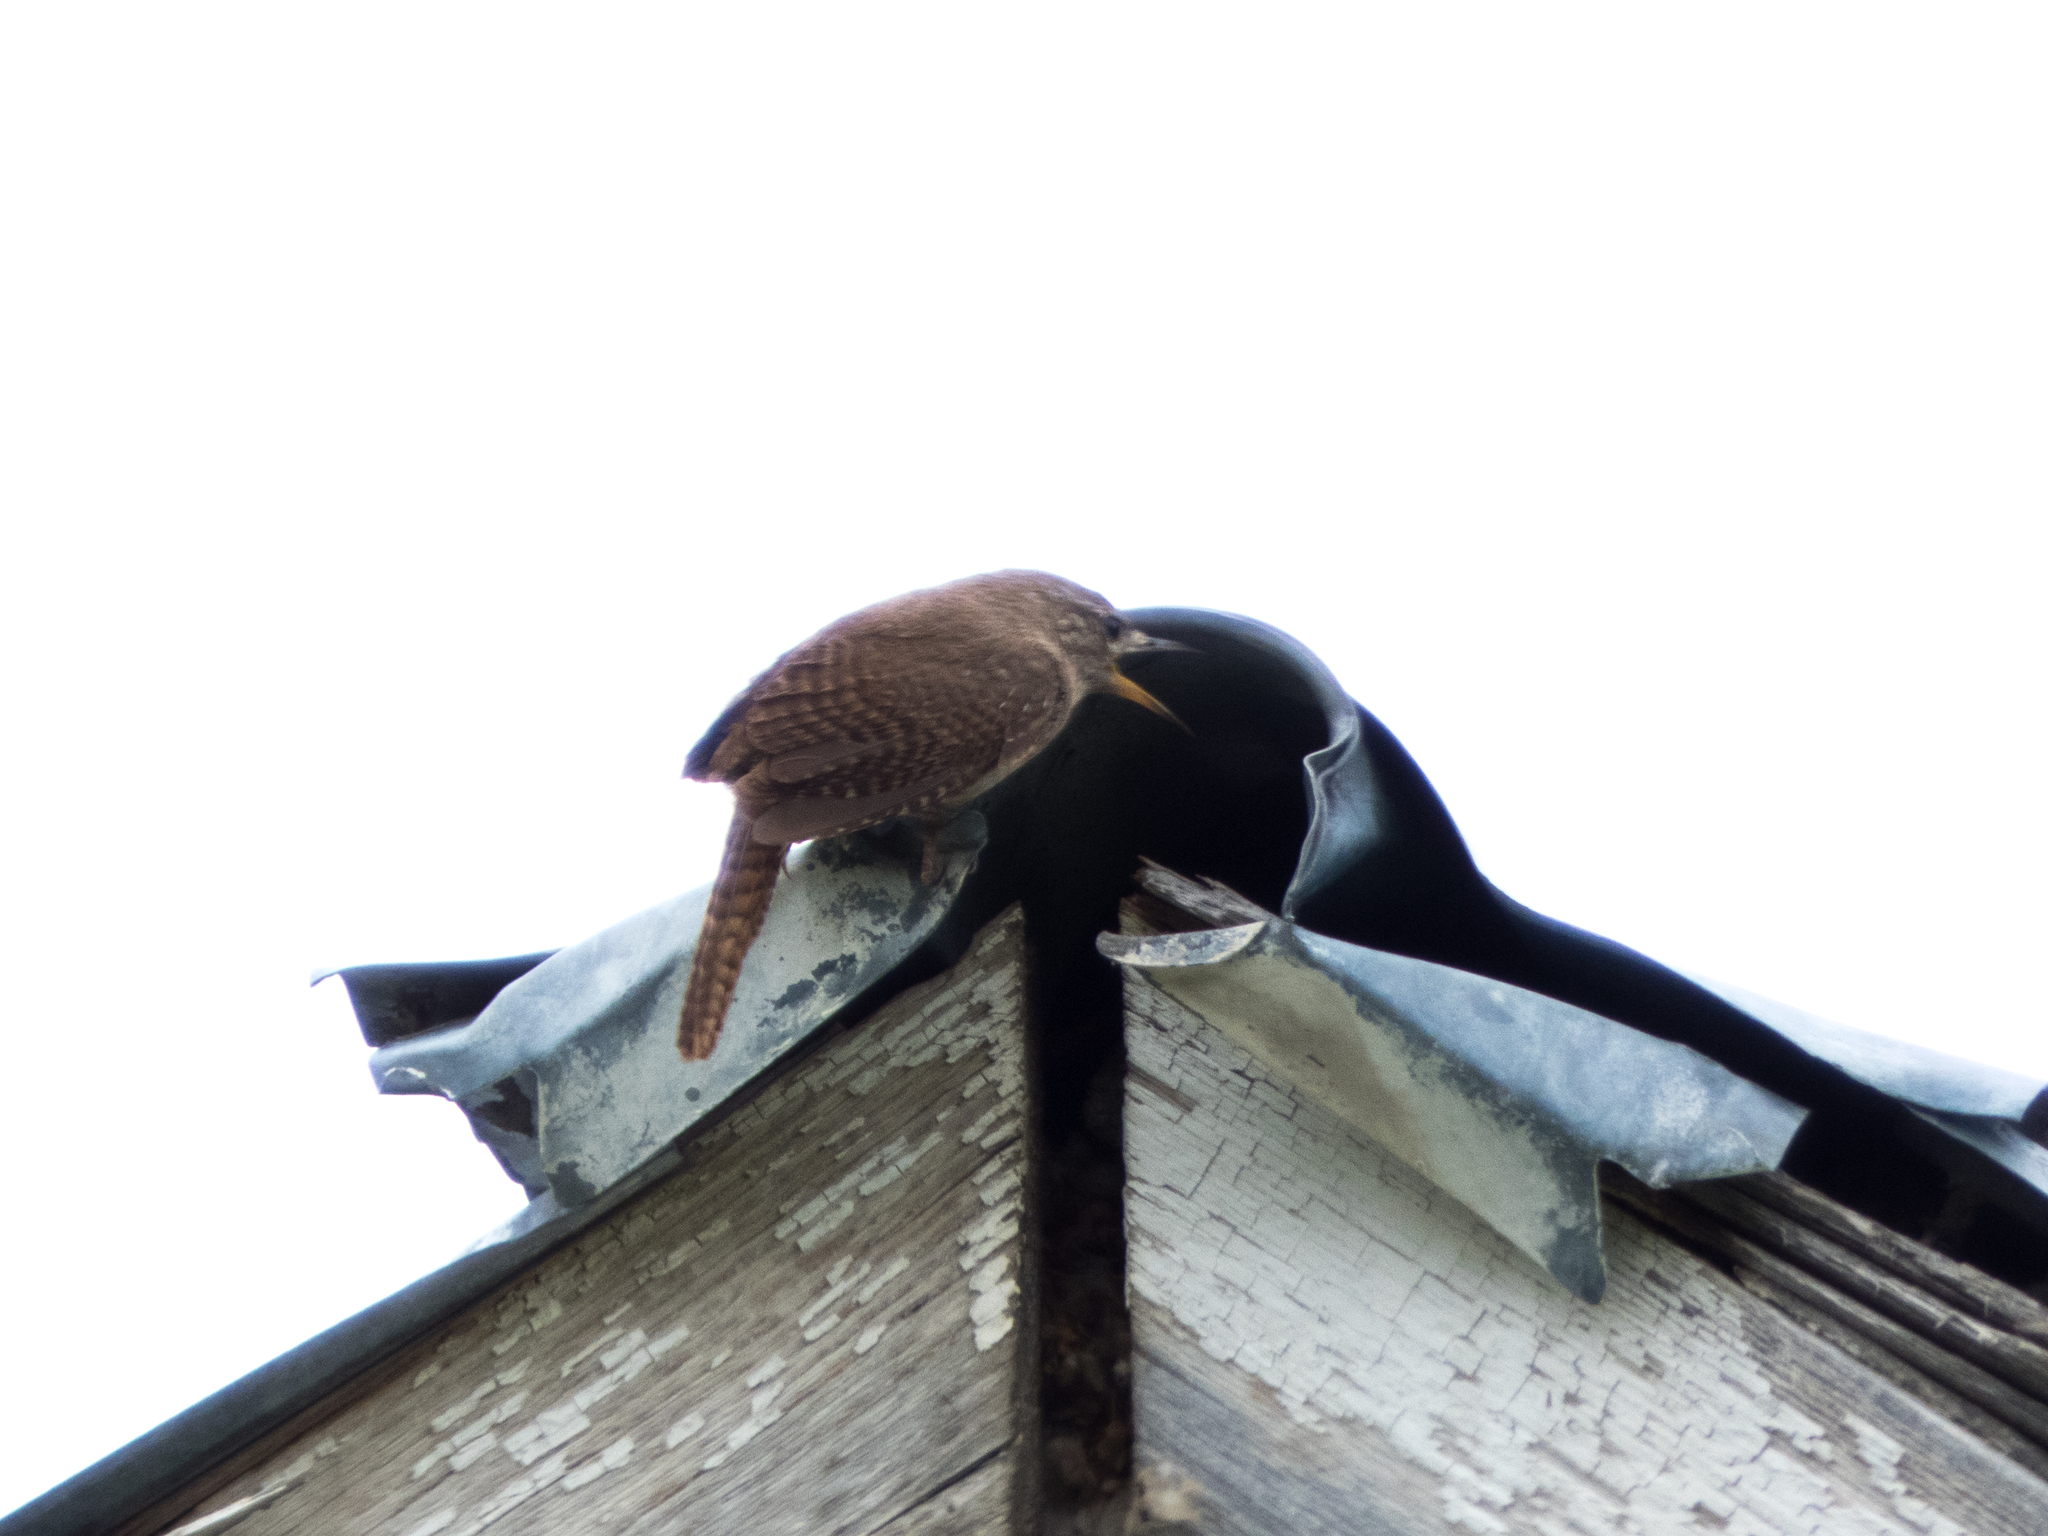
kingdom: Animalia
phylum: Chordata
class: Aves
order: Passeriformes
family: Troglodytidae
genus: Troglodytes
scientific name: Troglodytes aedon
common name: House wren
